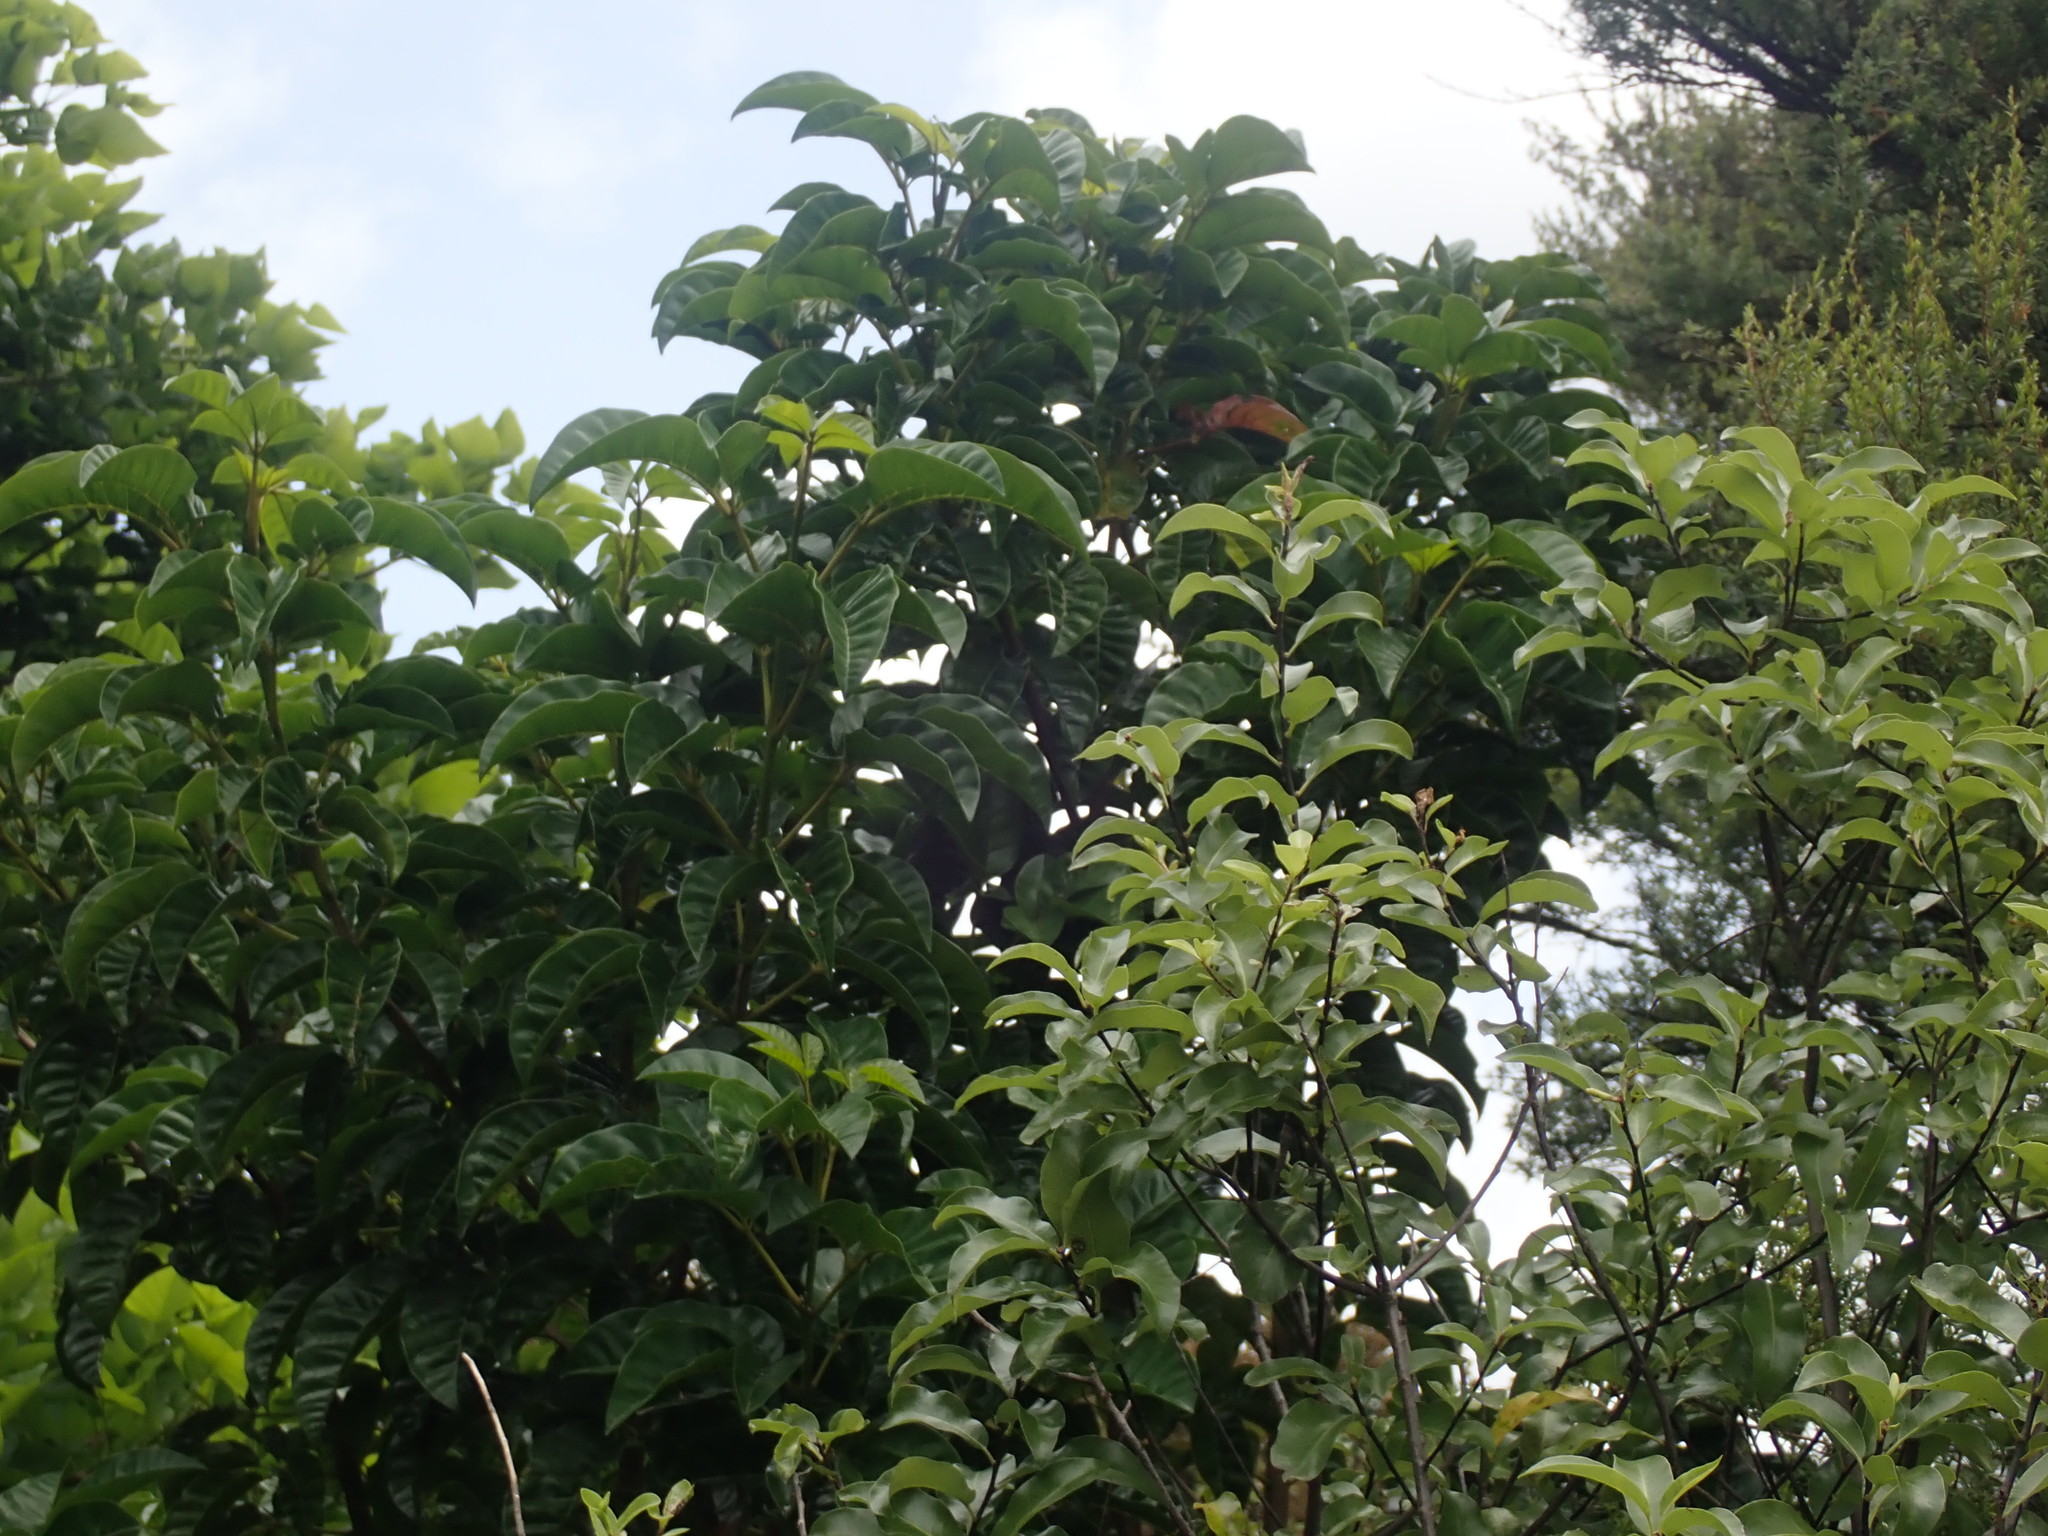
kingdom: Plantae
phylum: Tracheophyta
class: Magnoliopsida
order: Lamiales
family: Lamiaceae
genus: Vitex
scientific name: Vitex lucens
